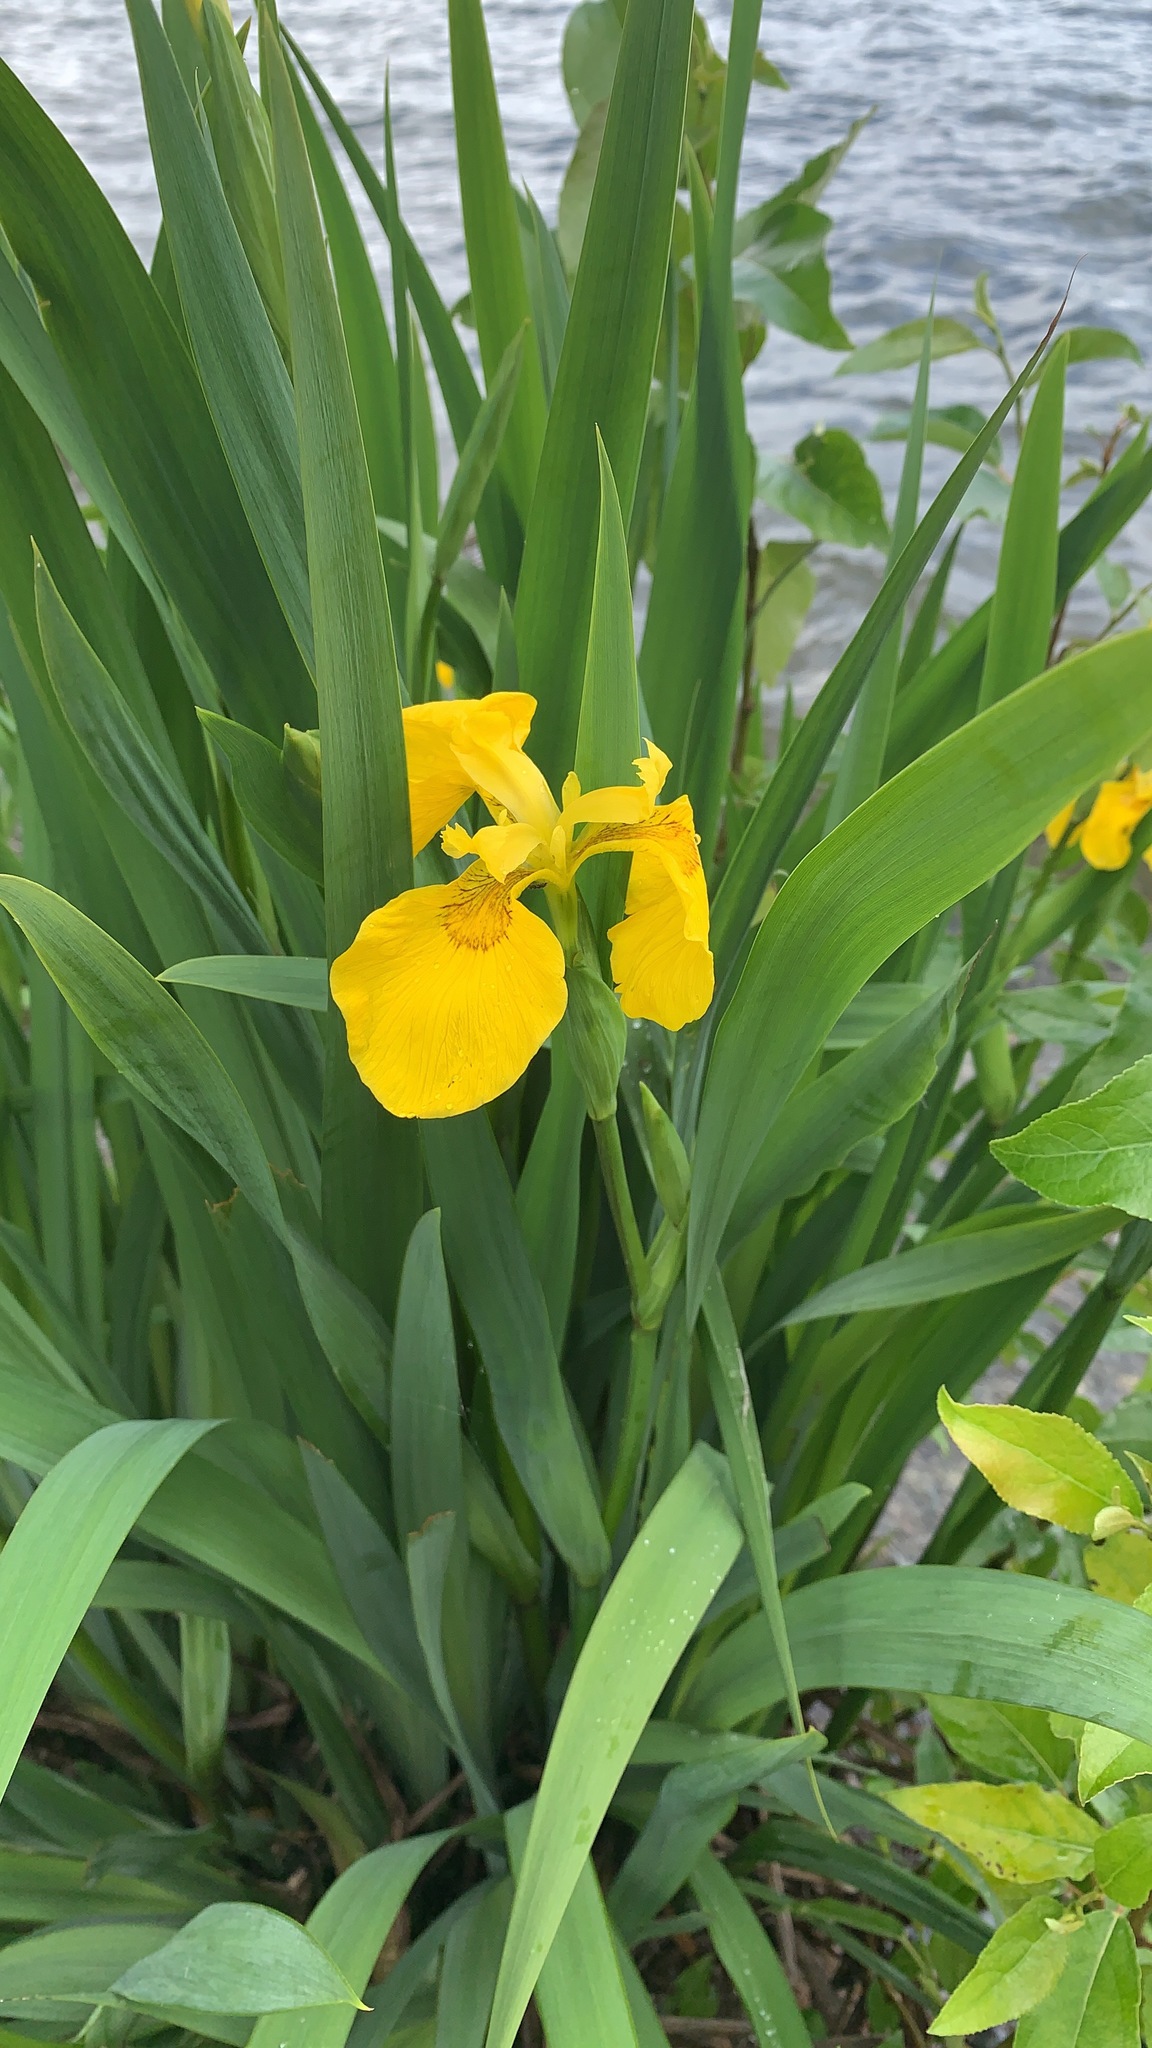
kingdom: Plantae
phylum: Tracheophyta
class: Liliopsida
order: Asparagales
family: Iridaceae
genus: Iris
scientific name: Iris pseudacorus
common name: Yellow flag
